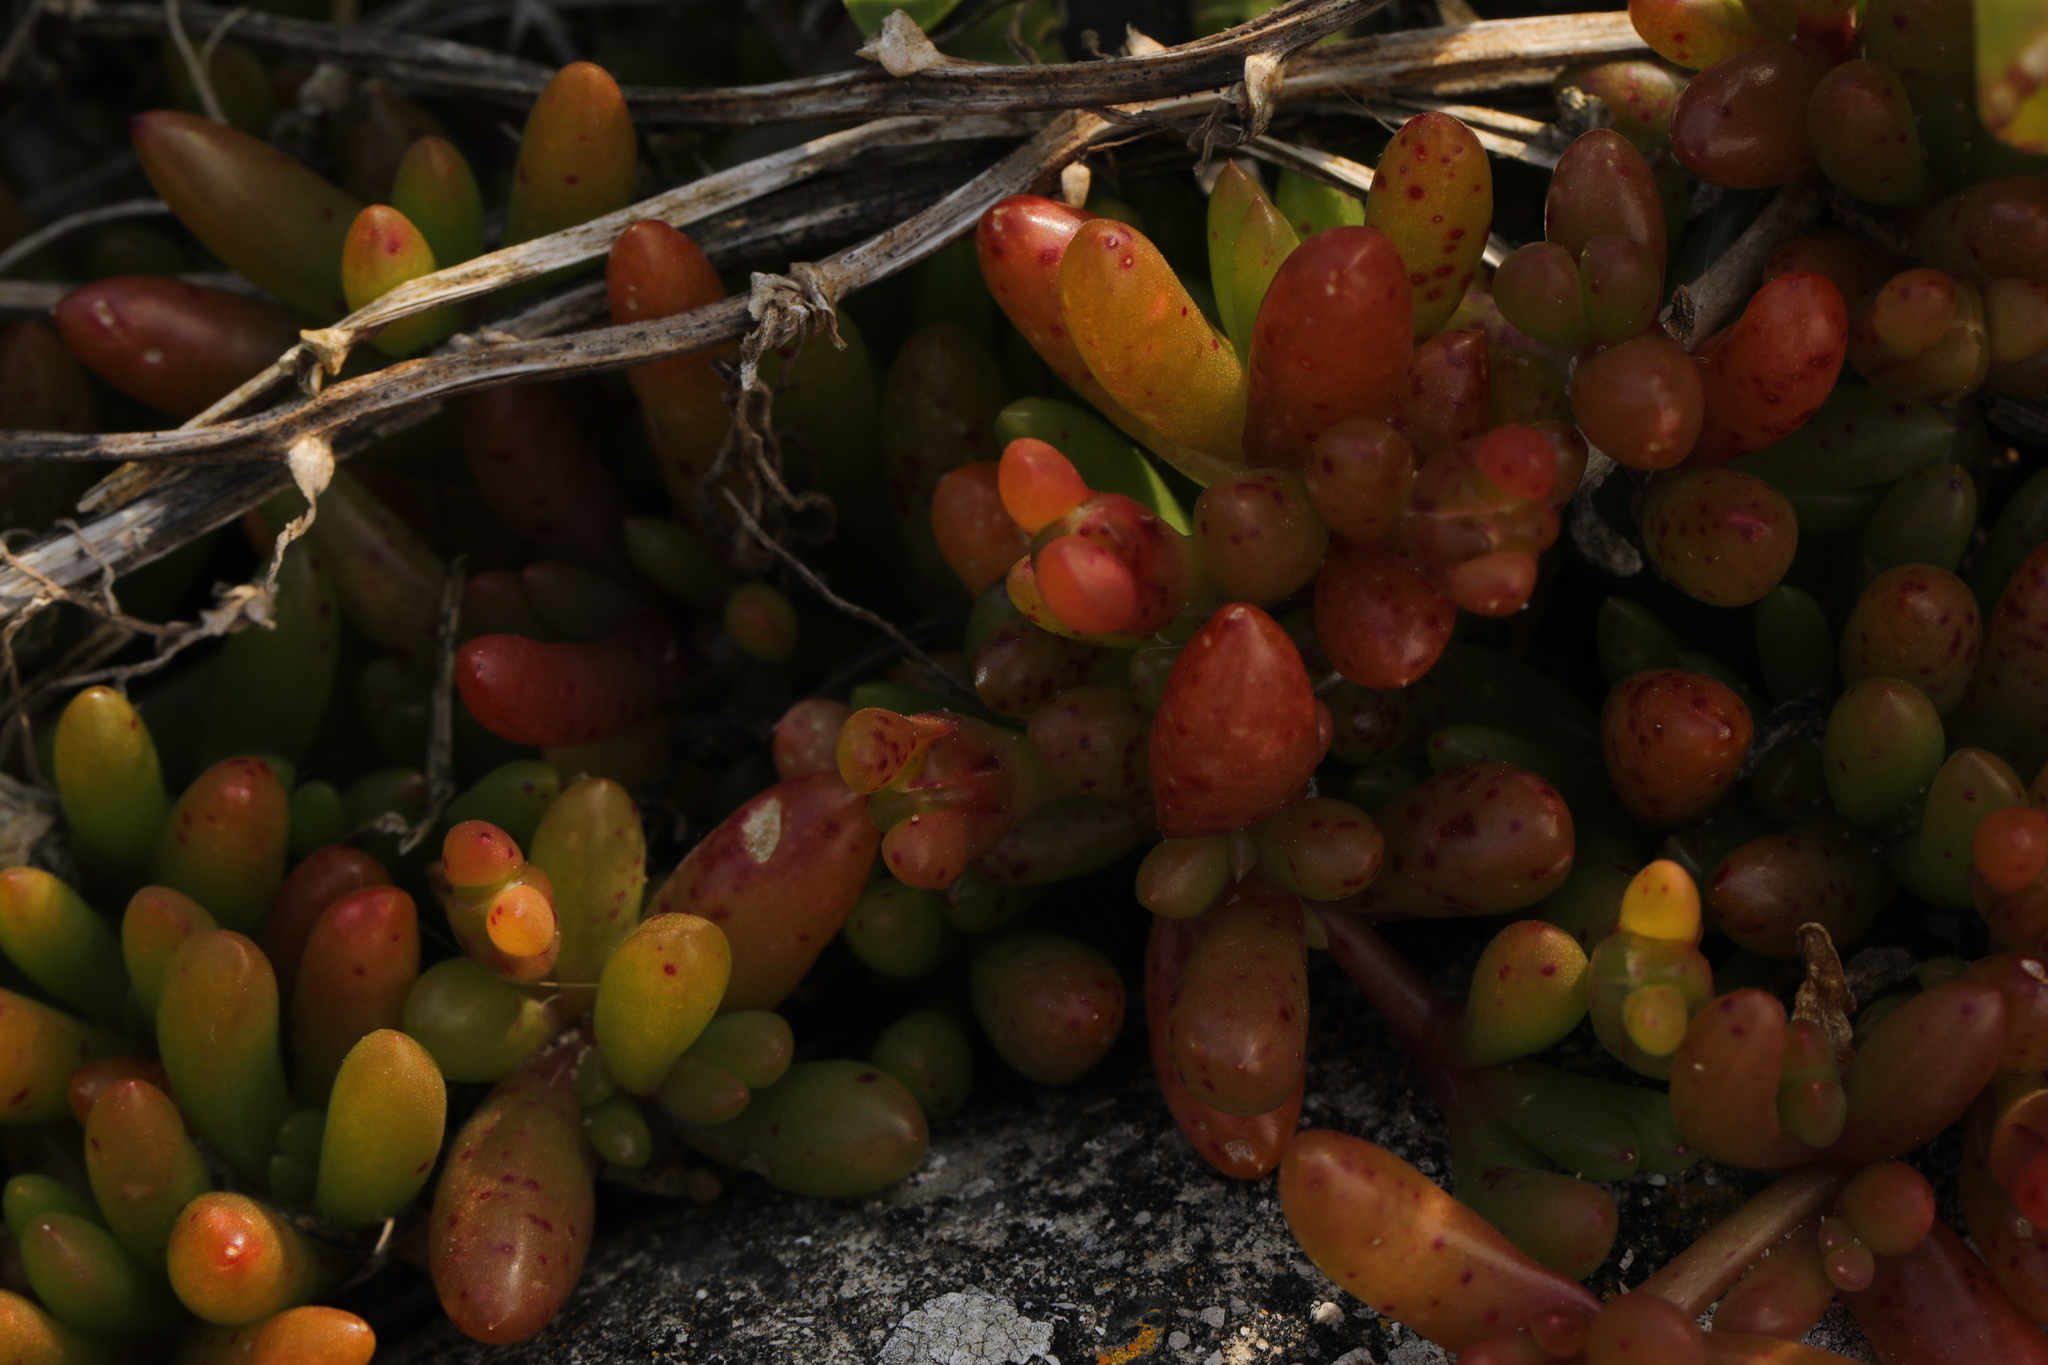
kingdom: Plantae
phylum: Tracheophyta
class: Magnoliopsida
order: Caryophyllales
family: Aizoaceae
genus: Disphyma
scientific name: Disphyma crassifolium
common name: Purple dewplant
